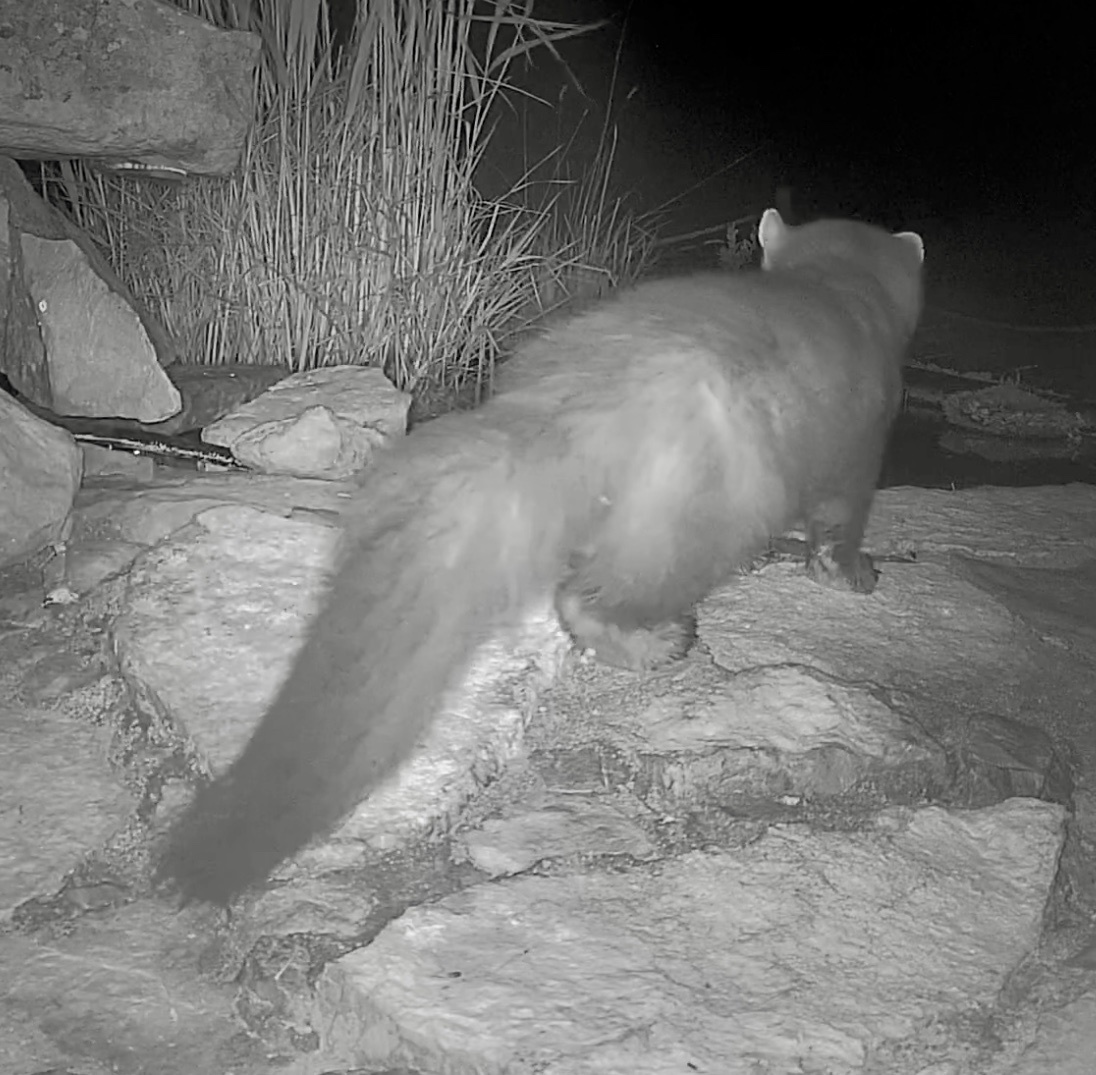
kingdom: Animalia
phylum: Chordata
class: Mammalia
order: Carnivora
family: Mustelidae
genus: Martes
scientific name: Martes foina
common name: Beech marten
